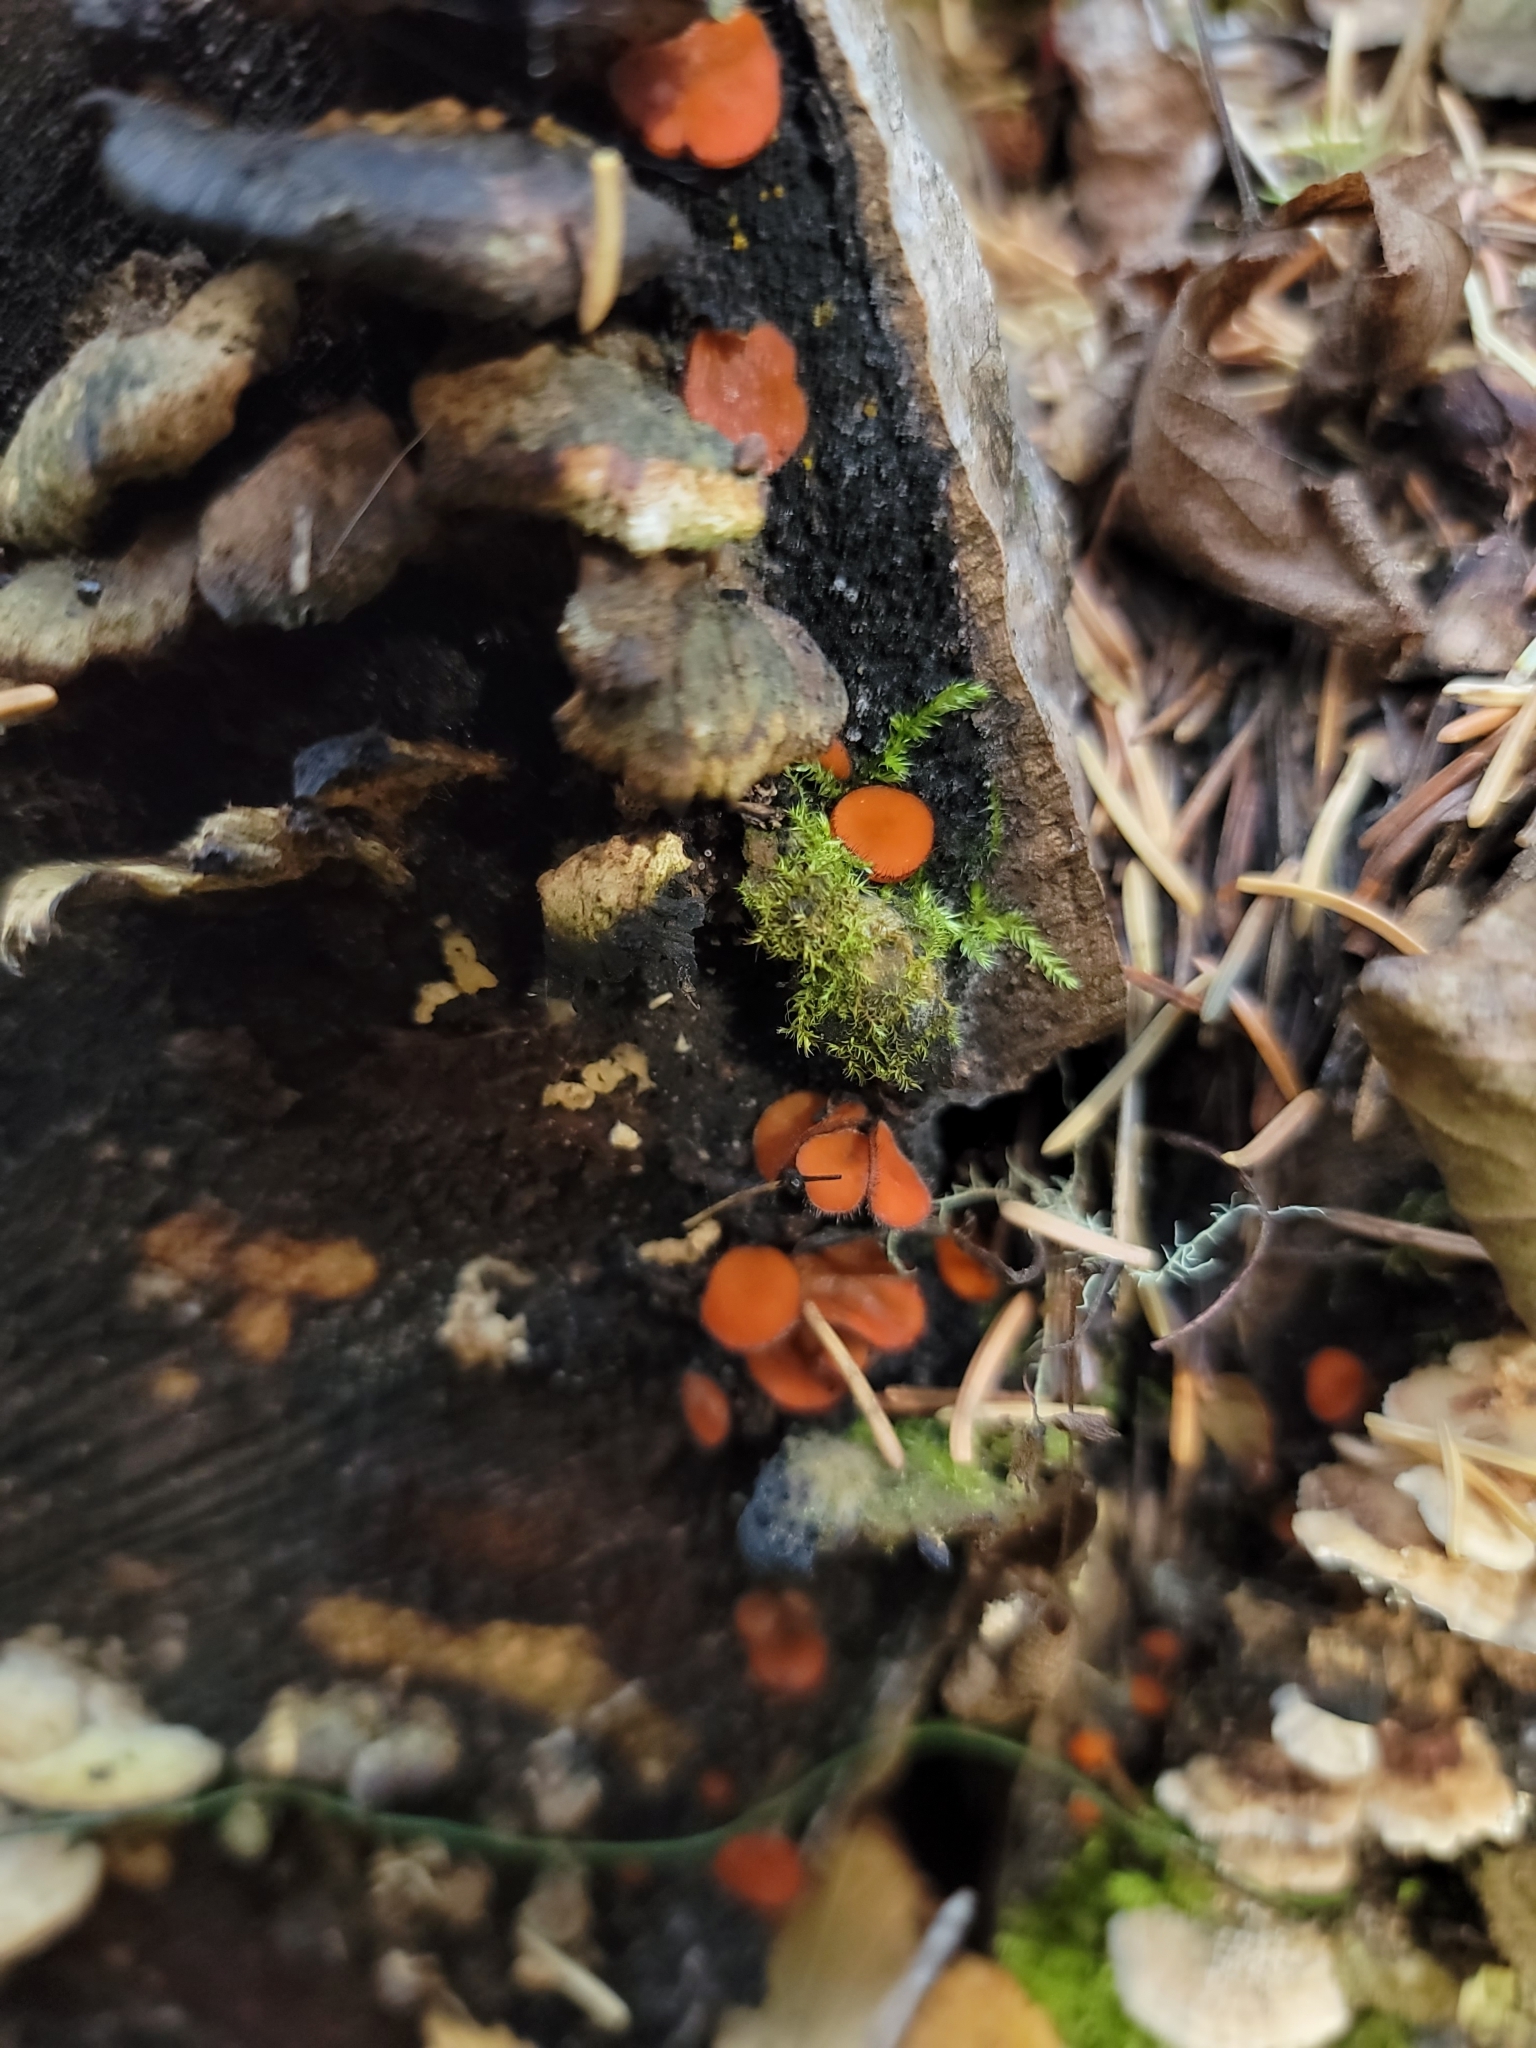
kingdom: Fungi
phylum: Ascomycota
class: Pezizomycetes
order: Pezizales
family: Pyronemataceae
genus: Scutellinia
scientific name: Scutellinia
